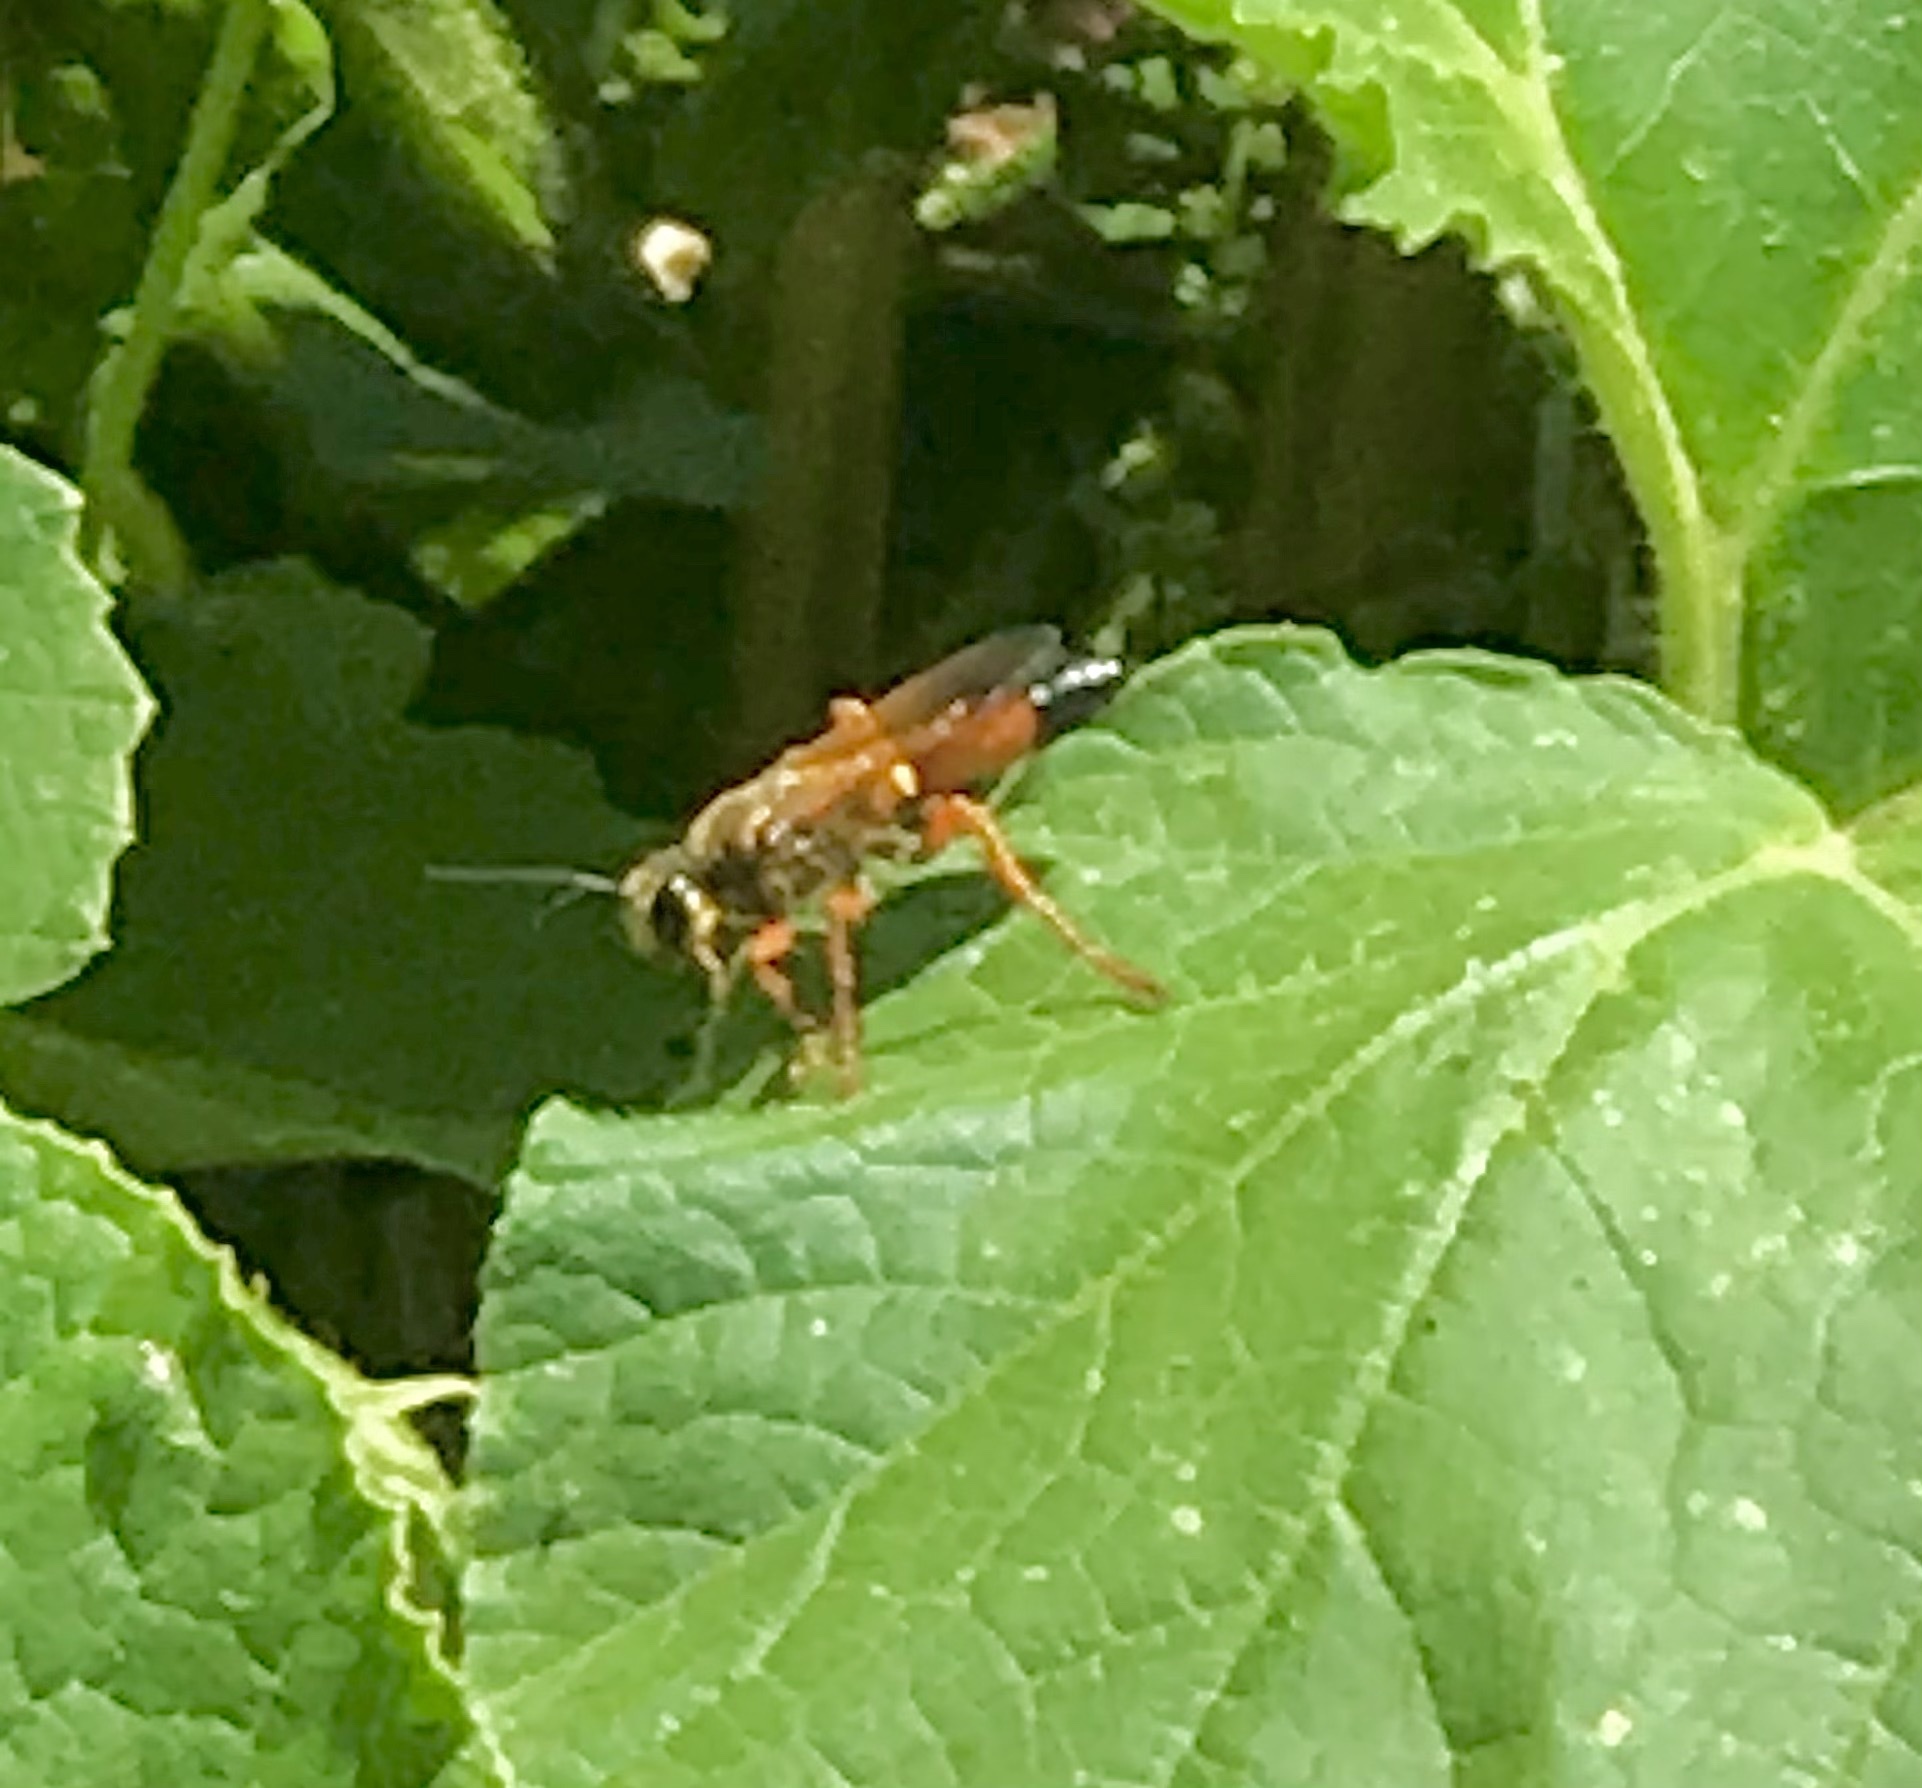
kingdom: Animalia
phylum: Arthropoda
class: Insecta
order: Hymenoptera
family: Sphecidae
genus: Sphex
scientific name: Sphex ichneumoneus
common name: Great golden digger wasp
